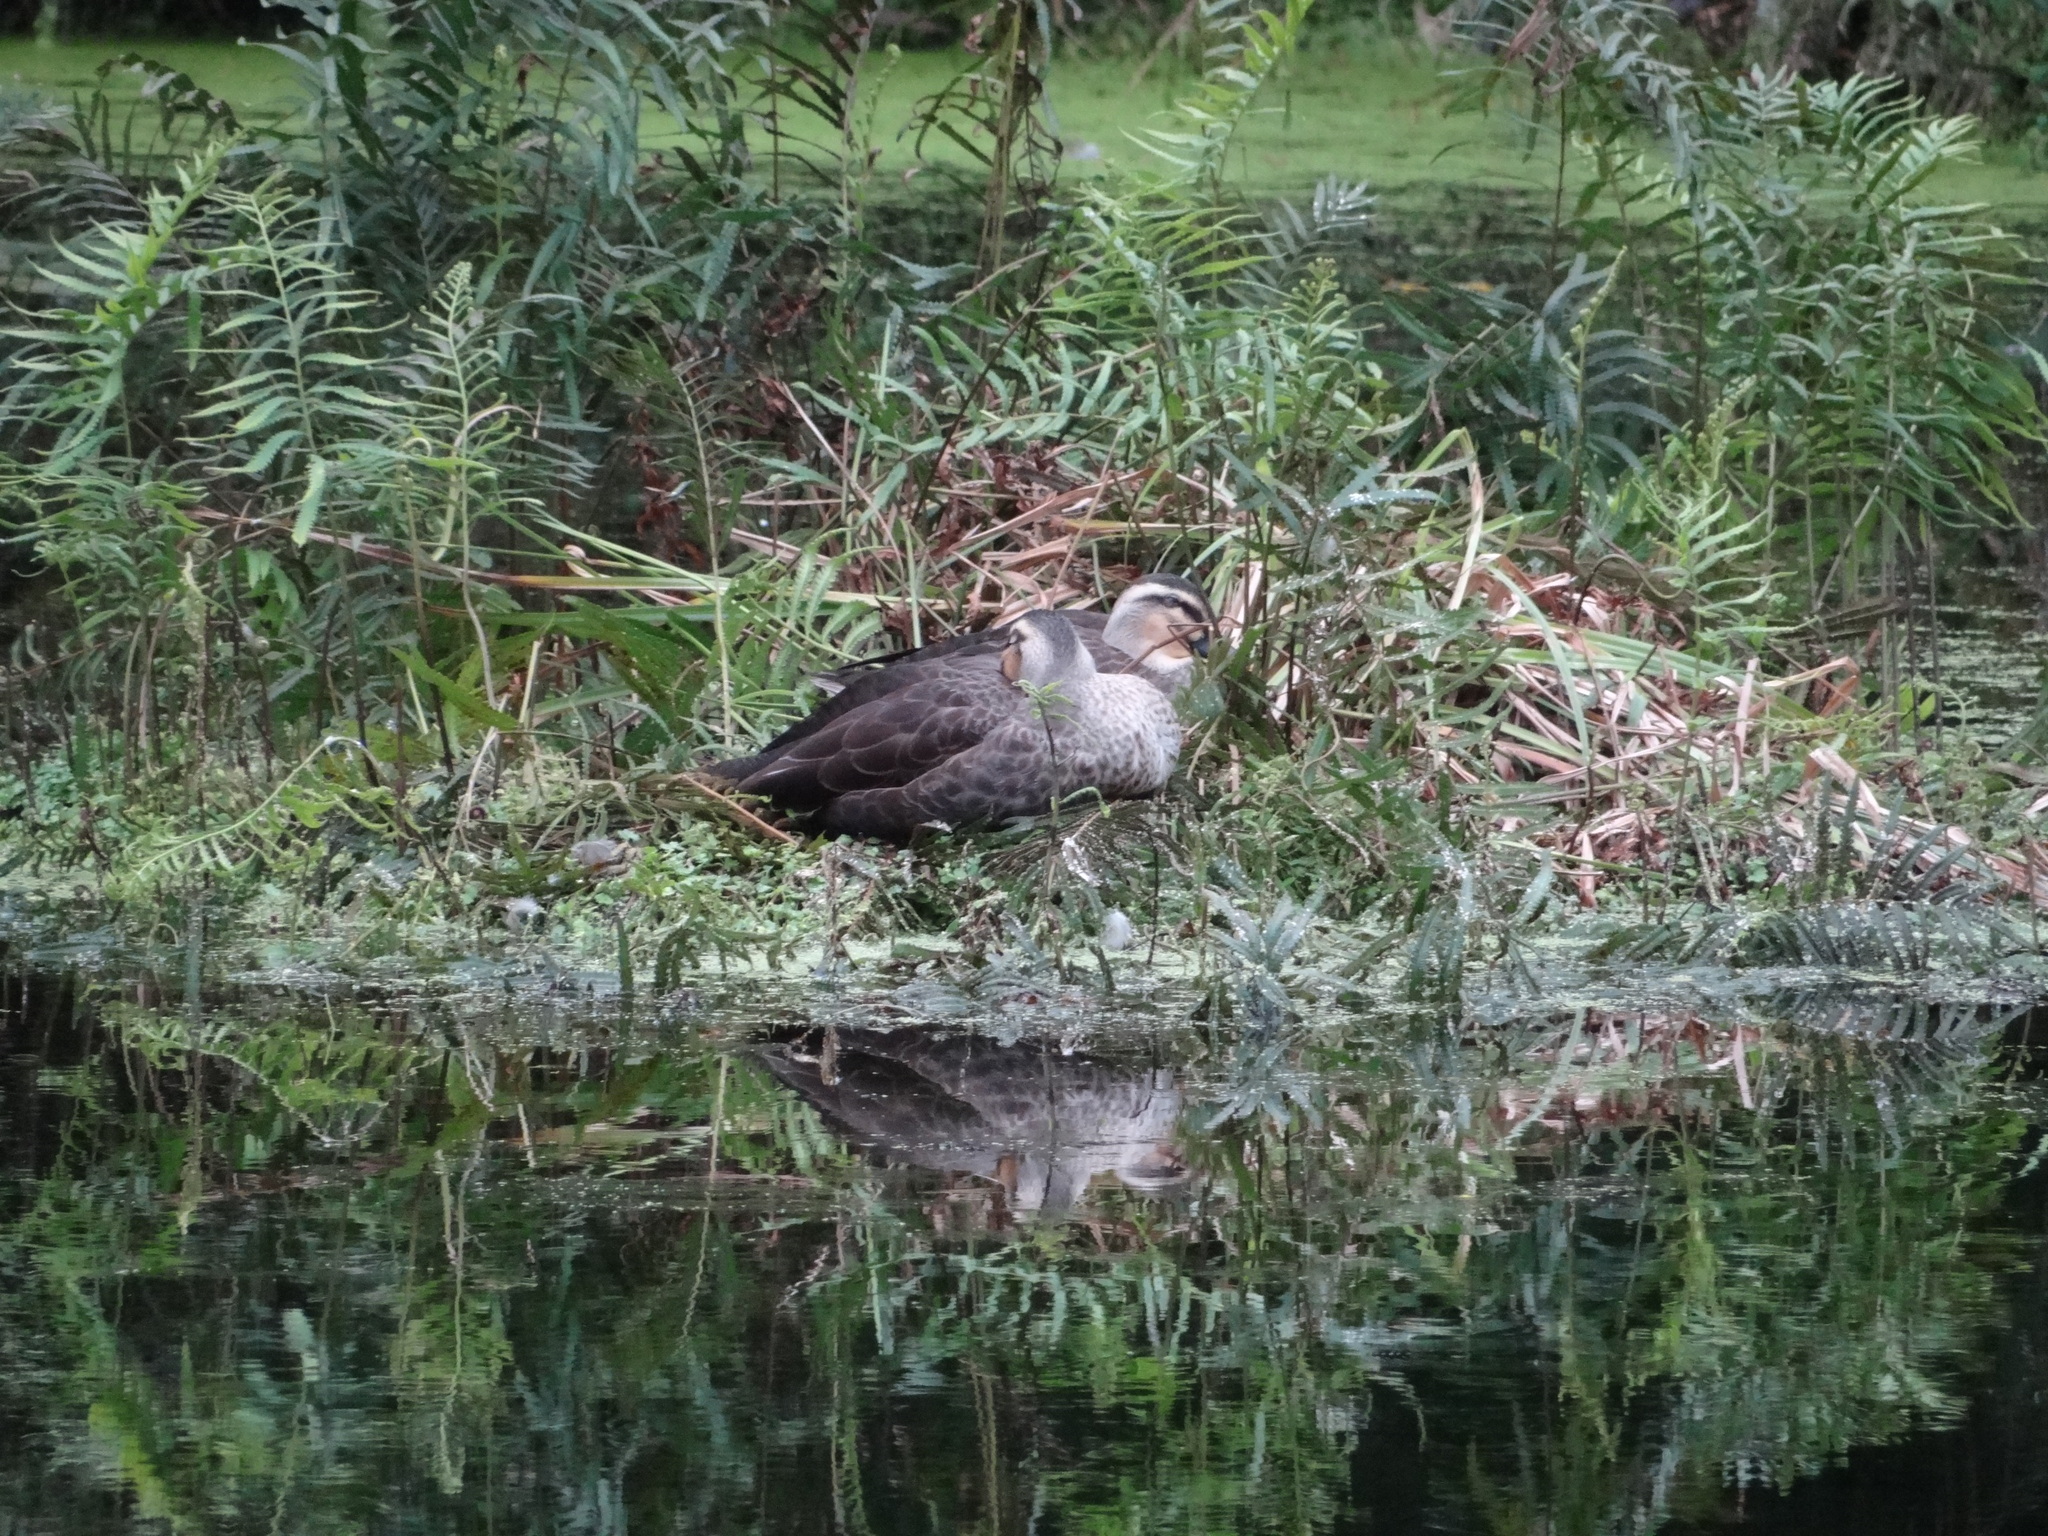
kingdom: Animalia
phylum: Chordata
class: Aves
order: Anseriformes
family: Anatidae
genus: Anas
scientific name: Anas zonorhyncha
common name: Eastern spot-billed duck
